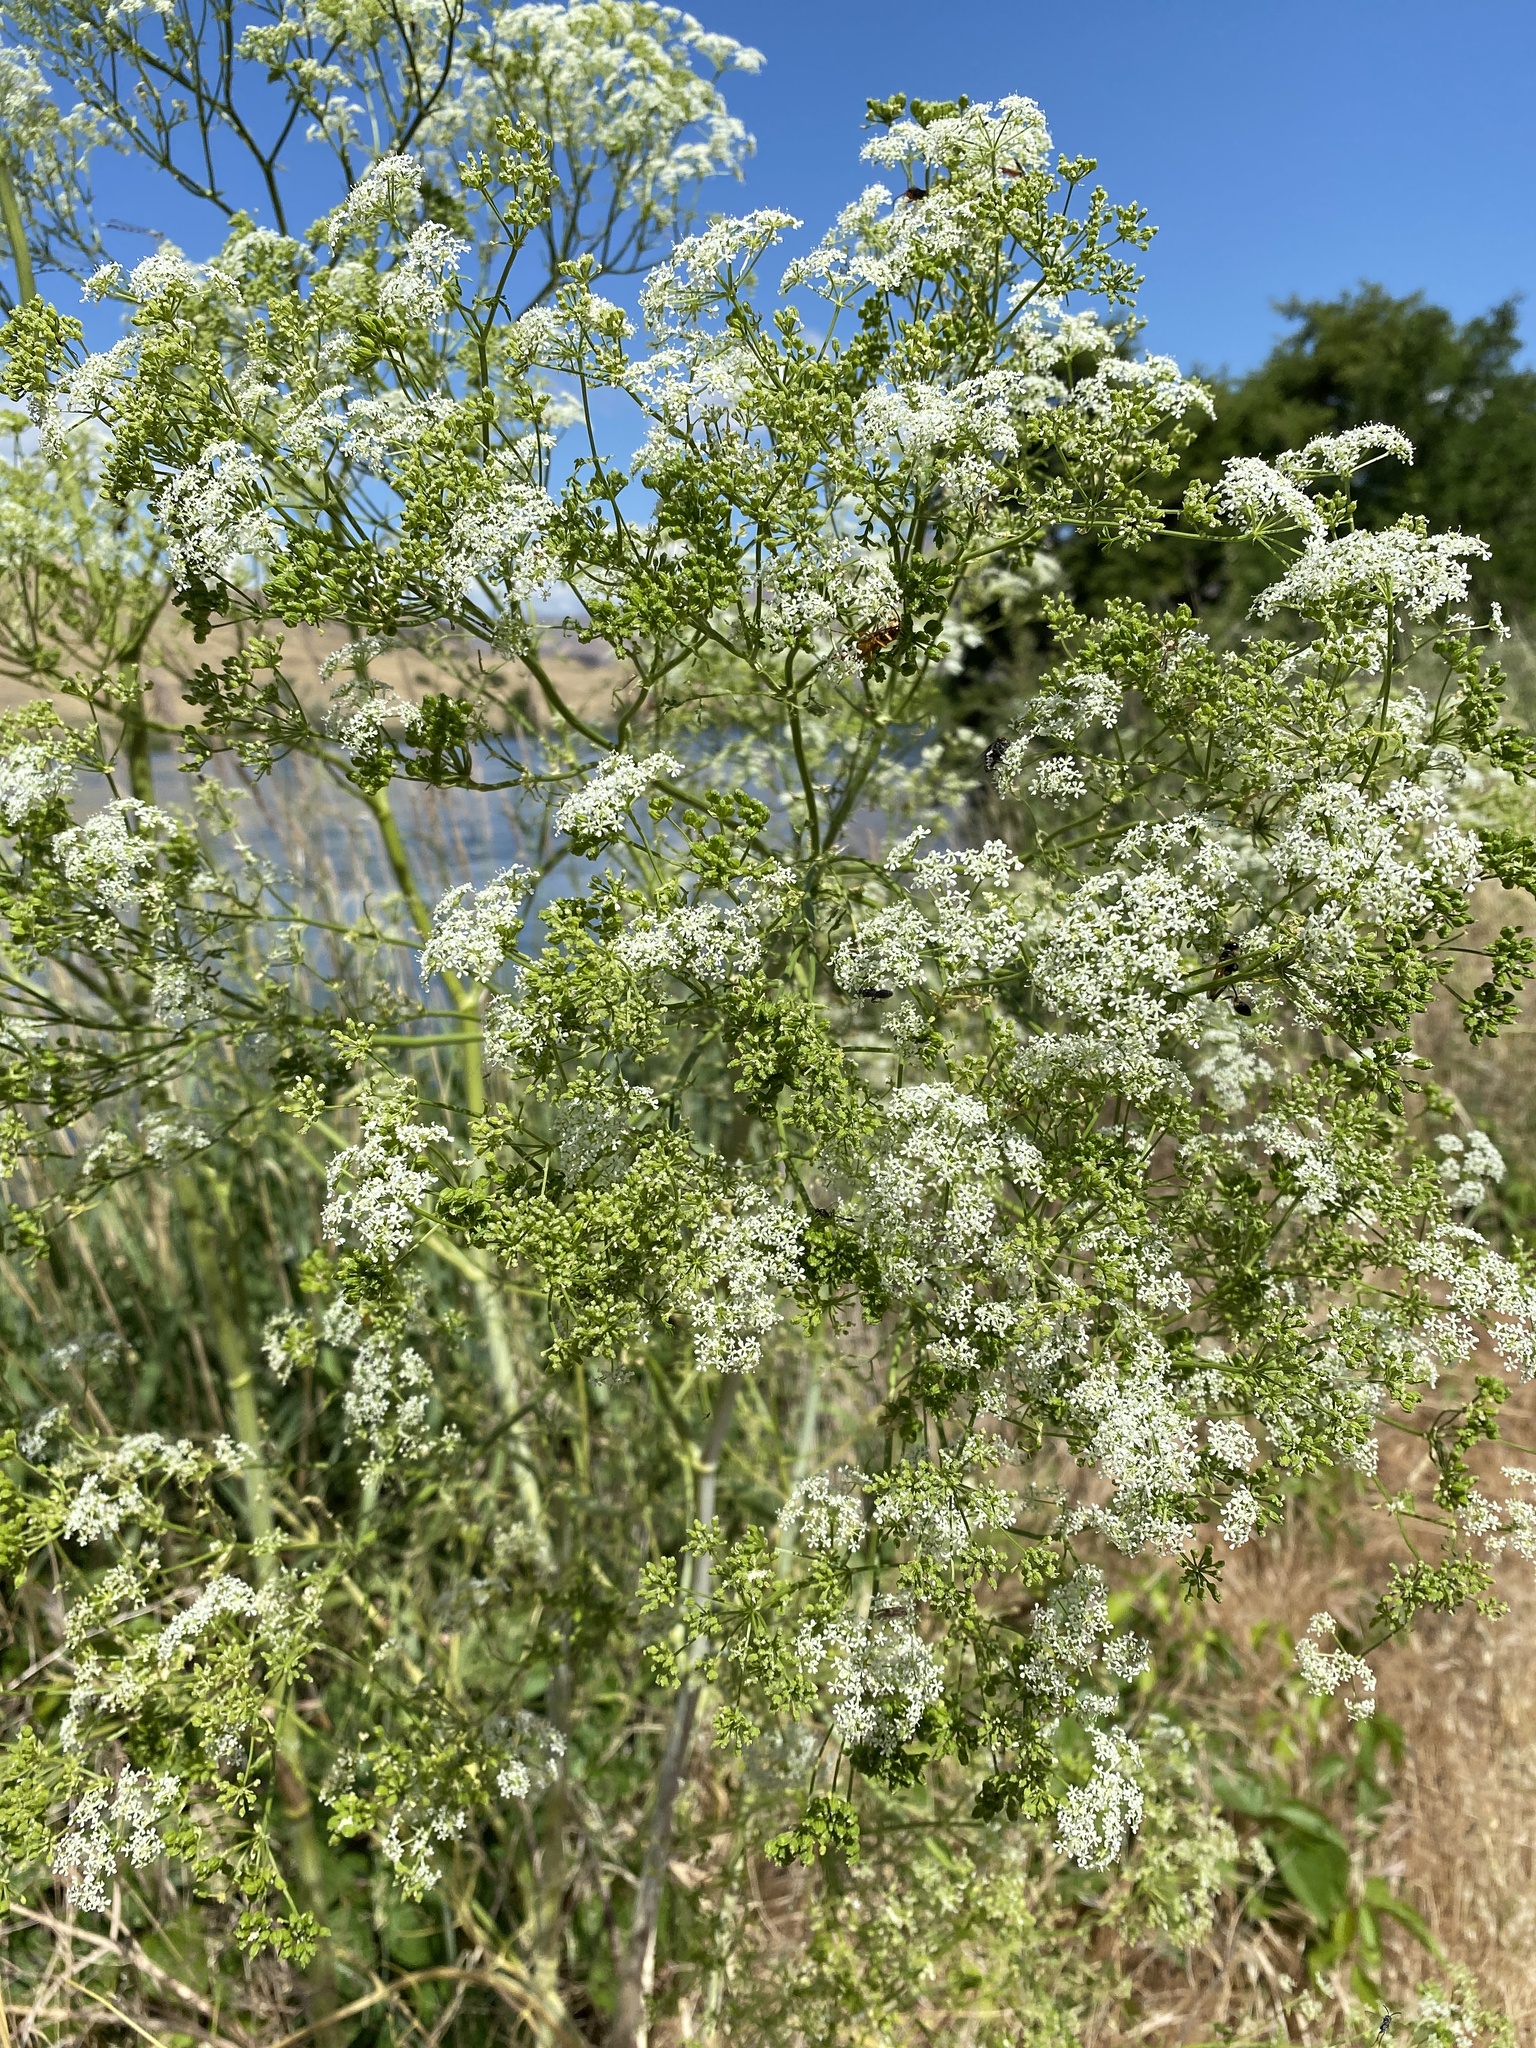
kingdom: Plantae
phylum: Tracheophyta
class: Magnoliopsida
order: Apiales
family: Apiaceae
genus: Conium
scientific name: Conium maculatum
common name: Hemlock
